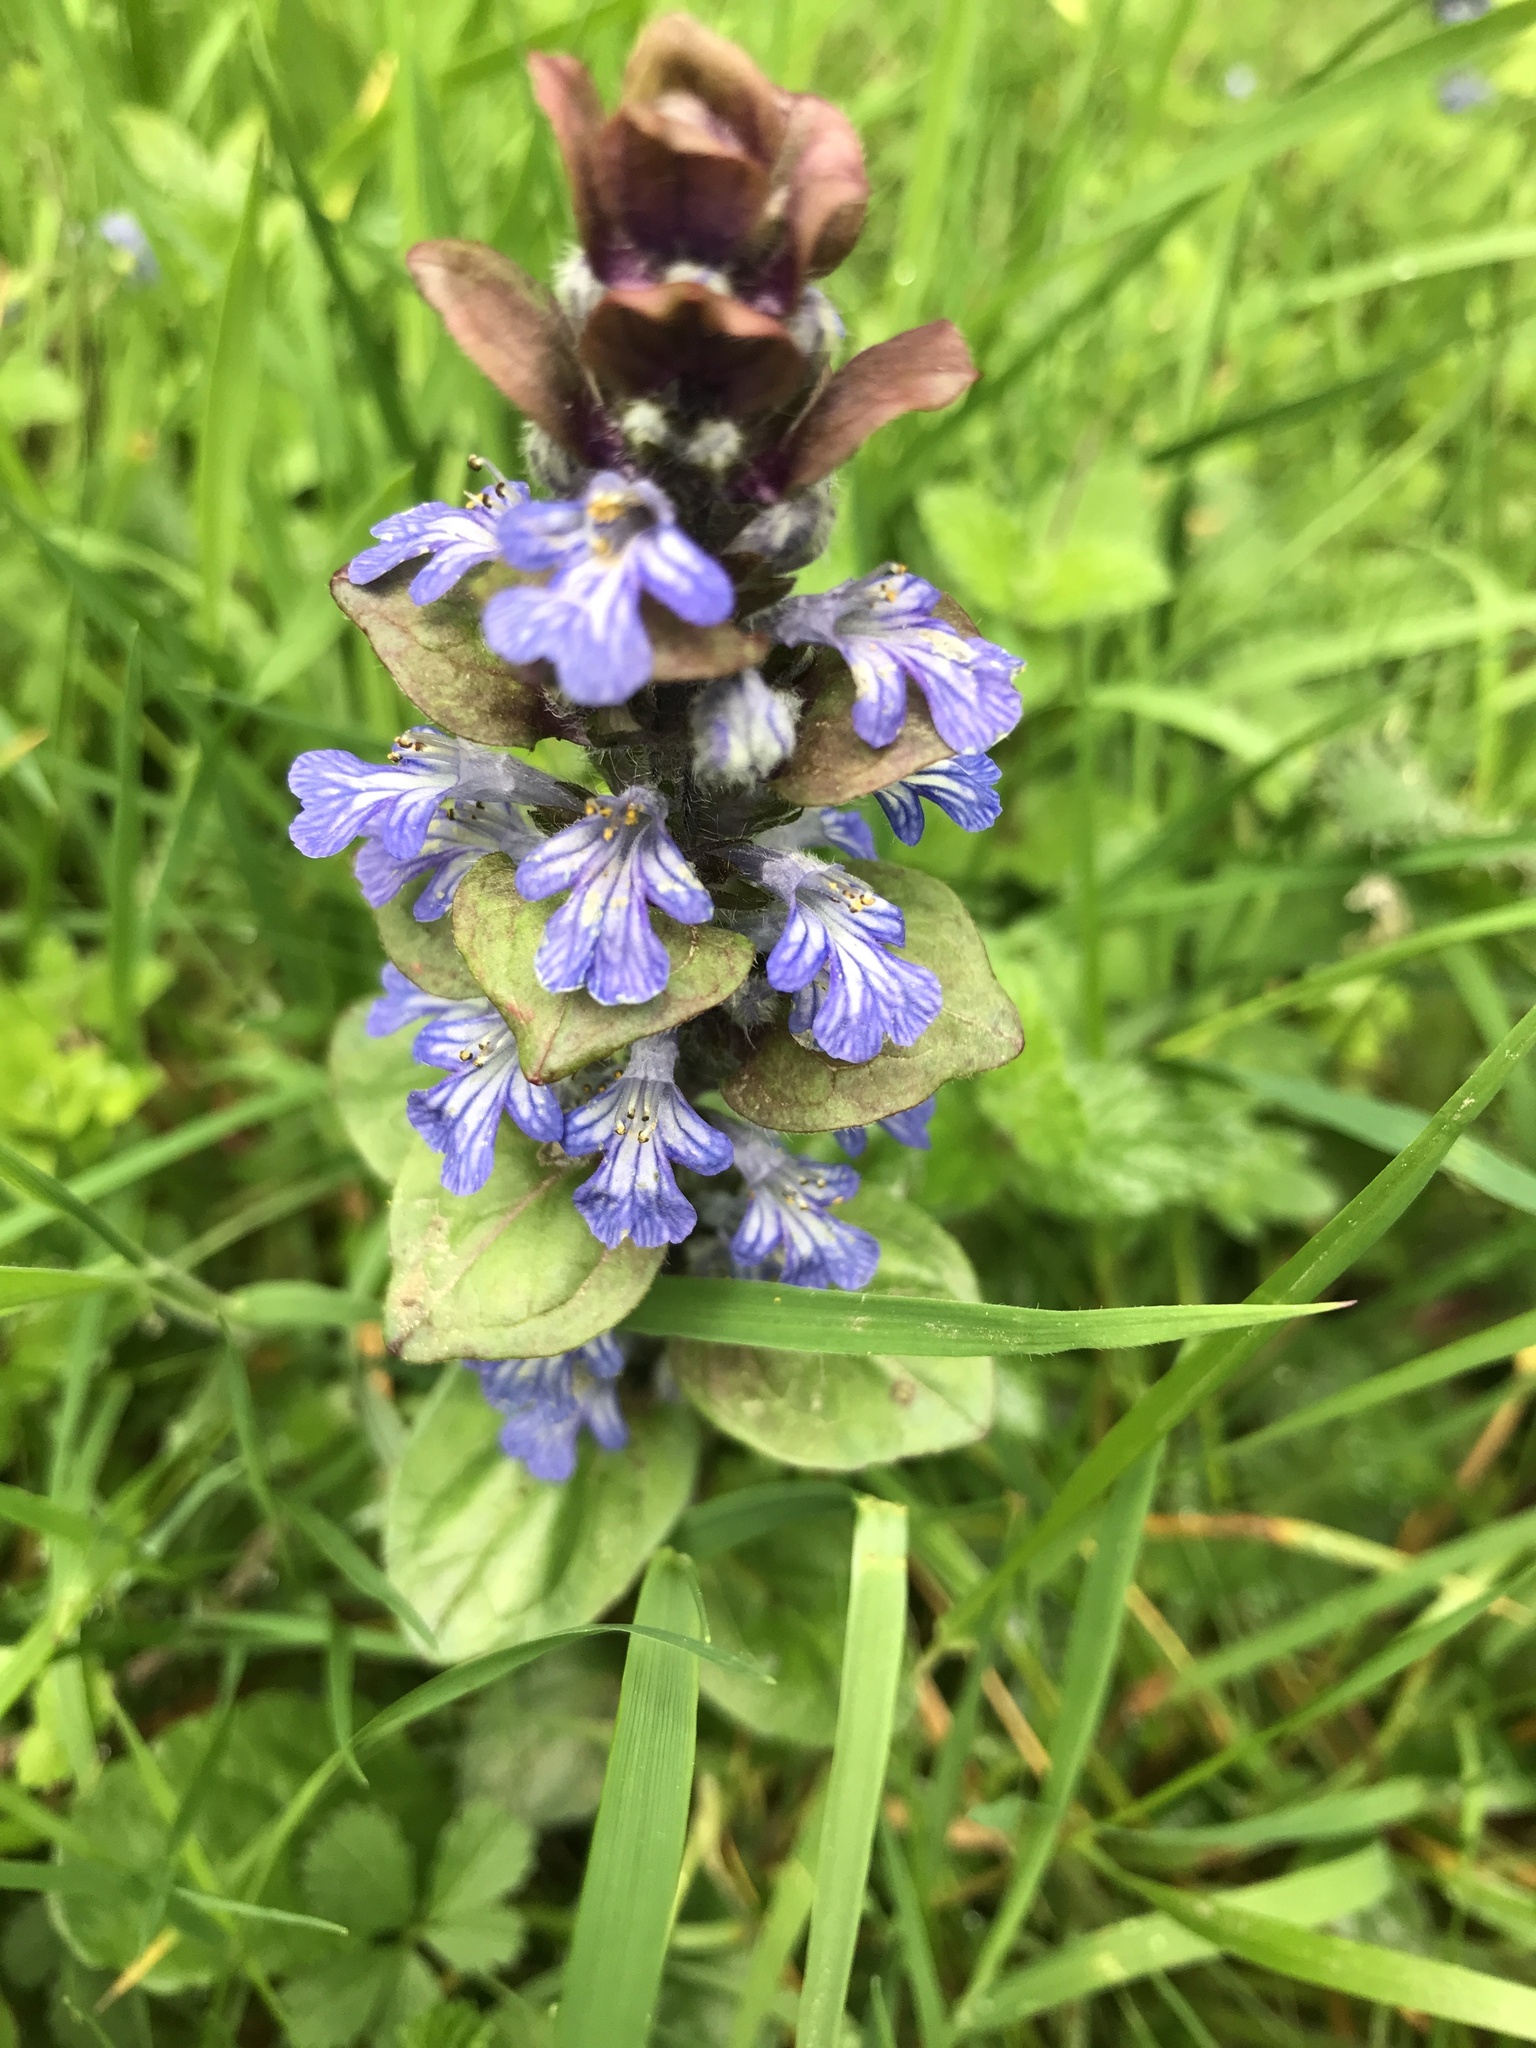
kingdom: Plantae
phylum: Tracheophyta
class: Magnoliopsida
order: Lamiales
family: Lamiaceae
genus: Ajuga
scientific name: Ajuga reptans
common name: Bugle
